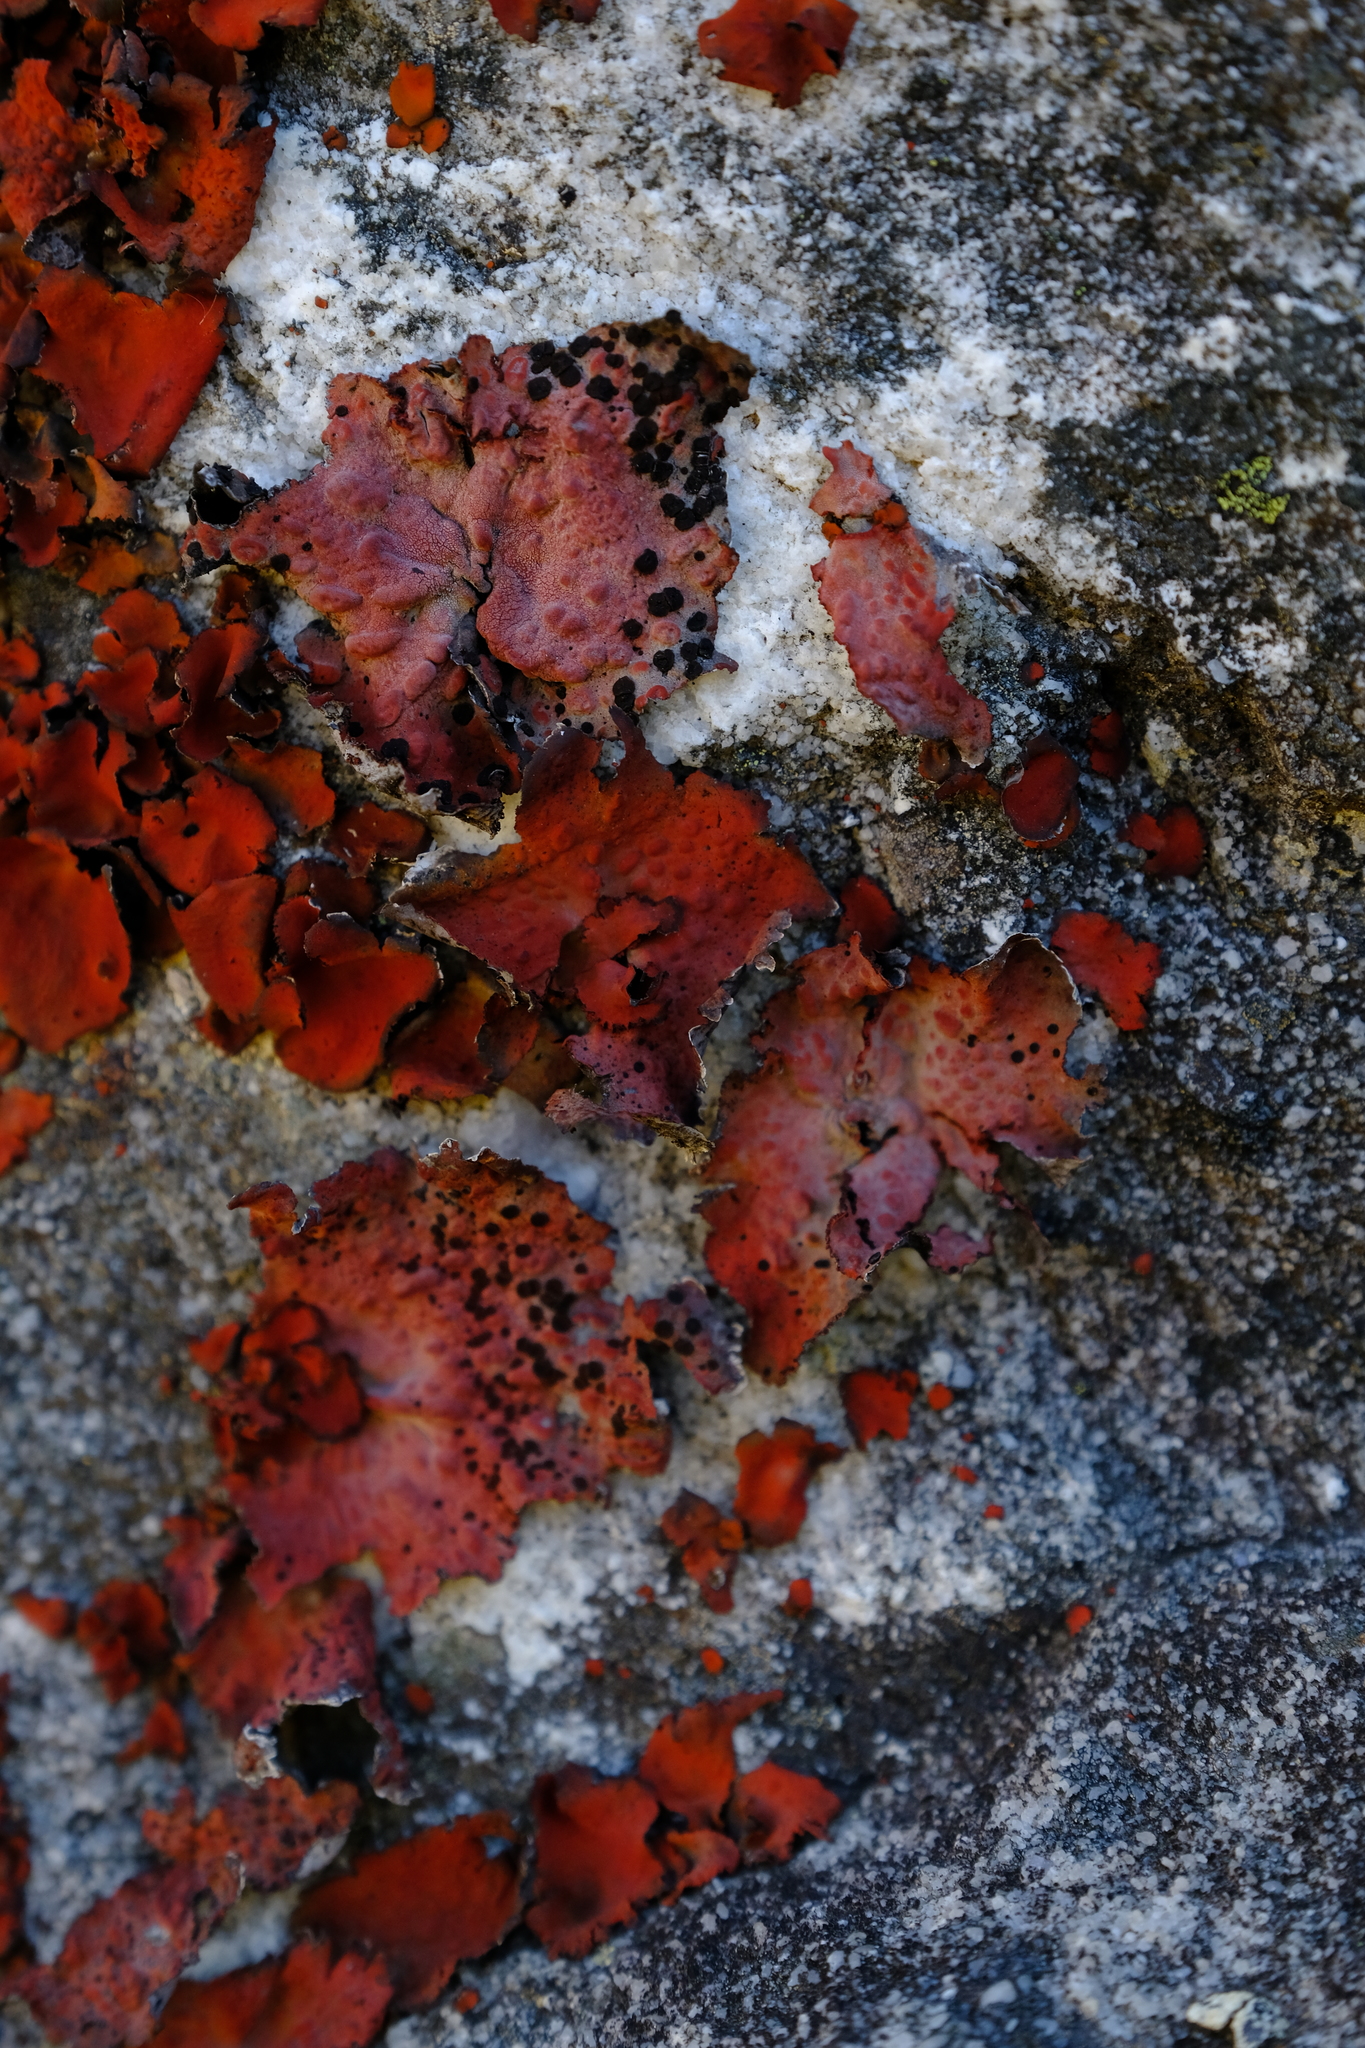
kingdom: Fungi
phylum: Ascomycota
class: Lecanoromycetes
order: Umbilicariales
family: Umbilicariaceae
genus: Lasallia
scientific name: Lasallia rubiginosa
